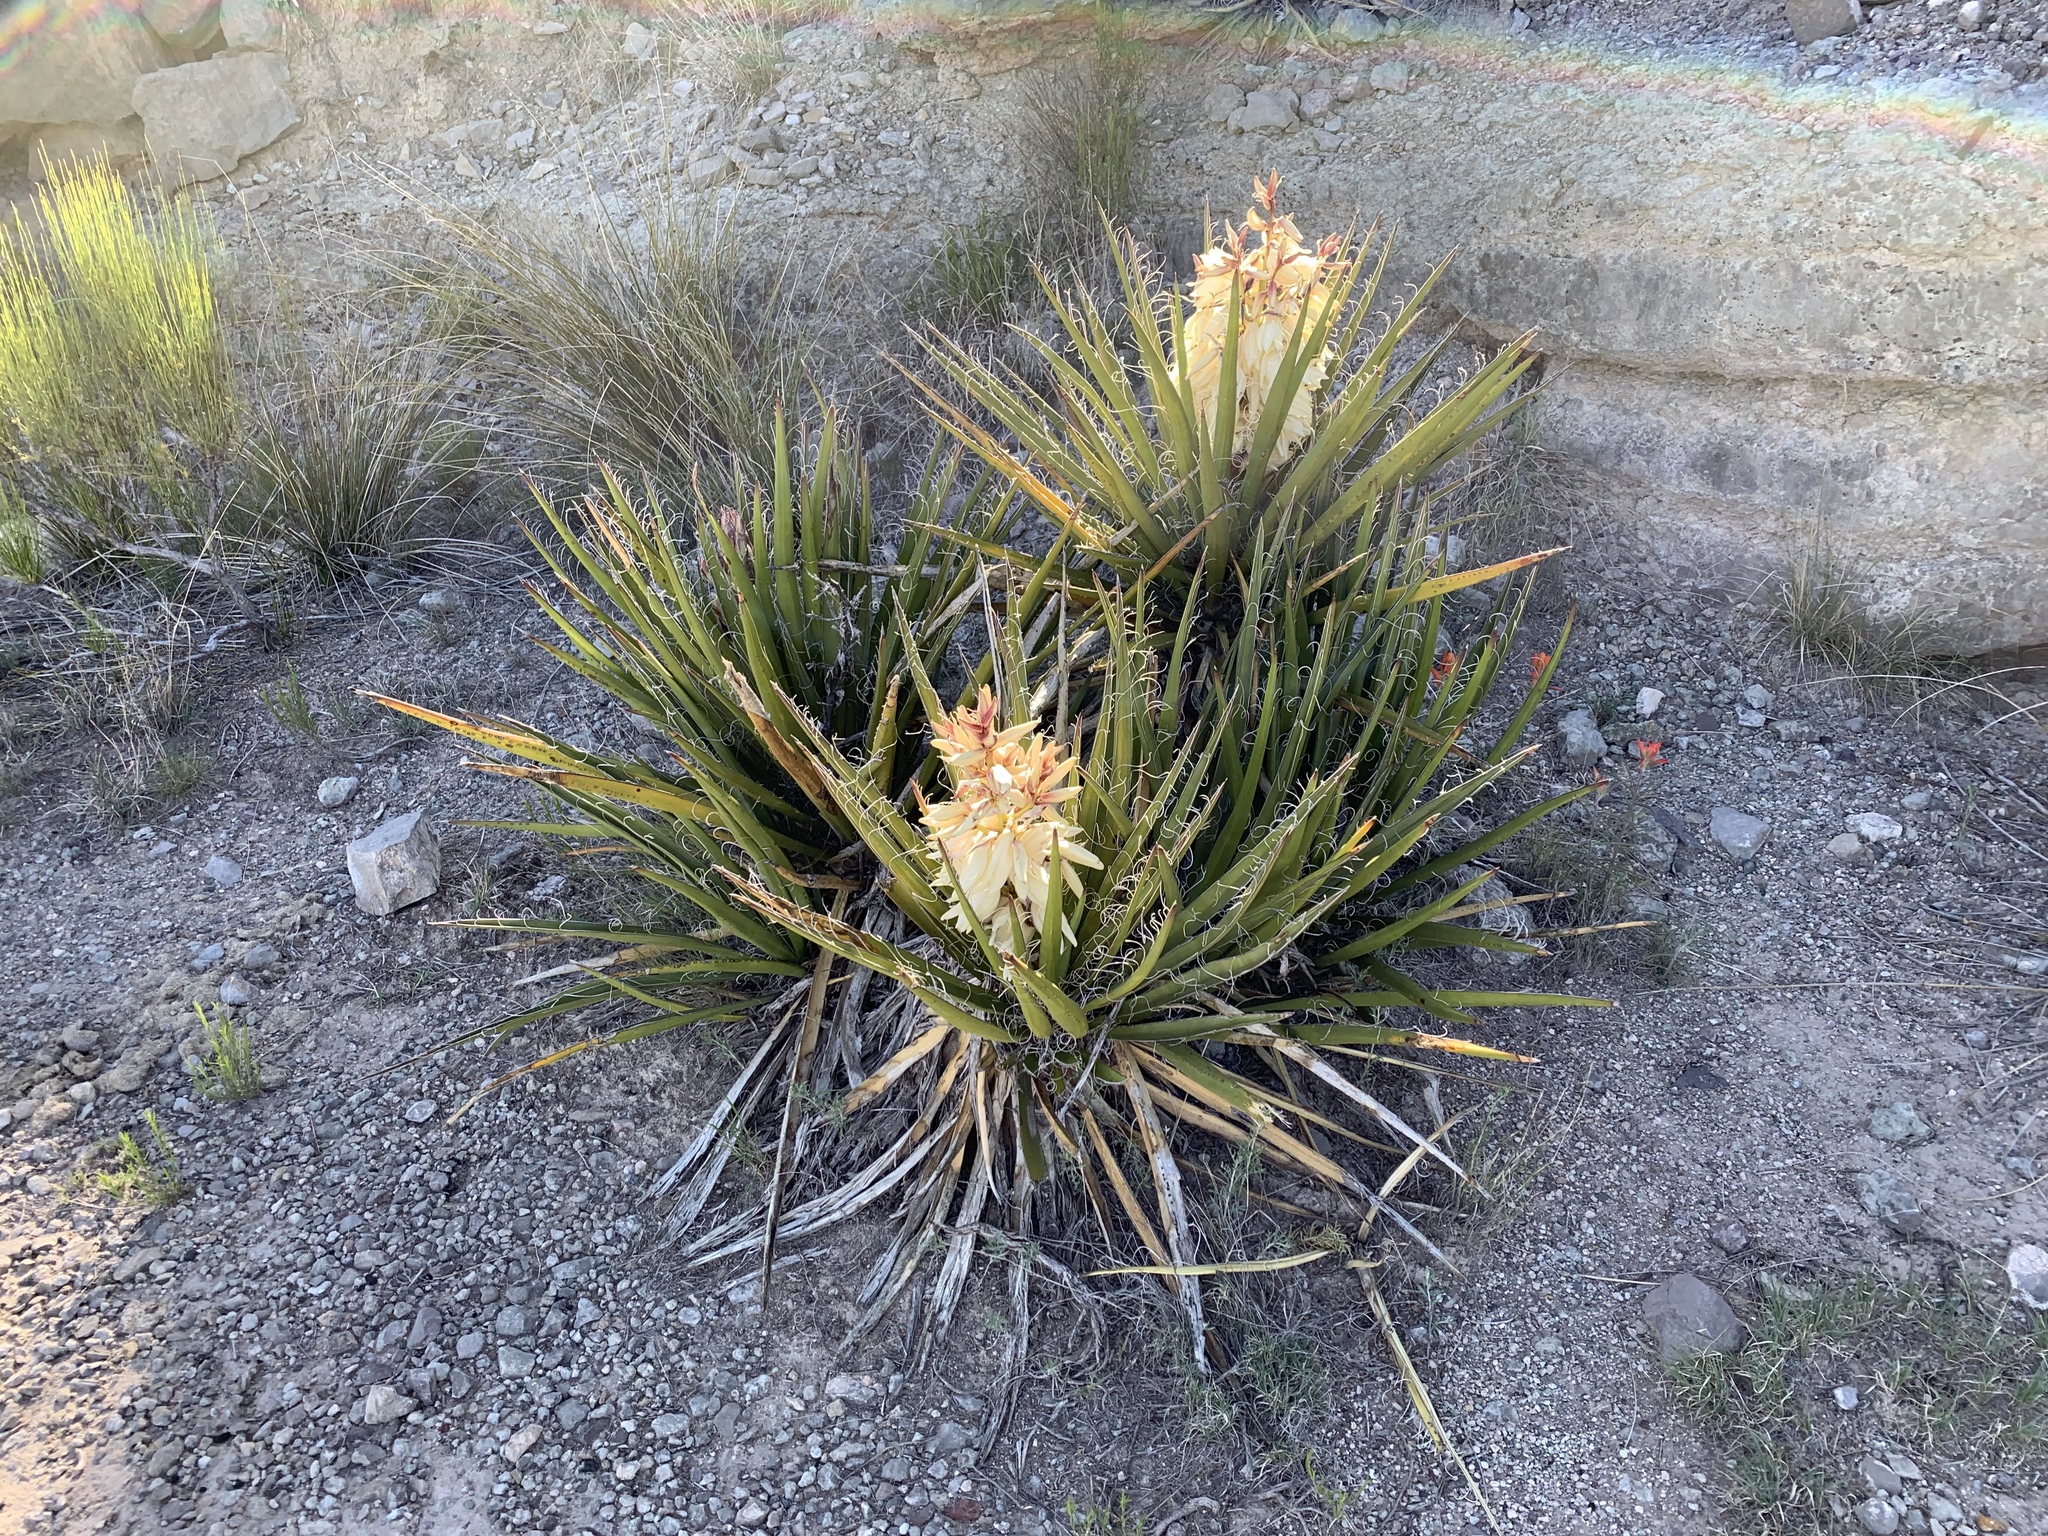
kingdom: Plantae
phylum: Tracheophyta
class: Liliopsida
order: Asparagales
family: Asparagaceae
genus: Yucca
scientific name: Yucca baccata
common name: Banana yucca
